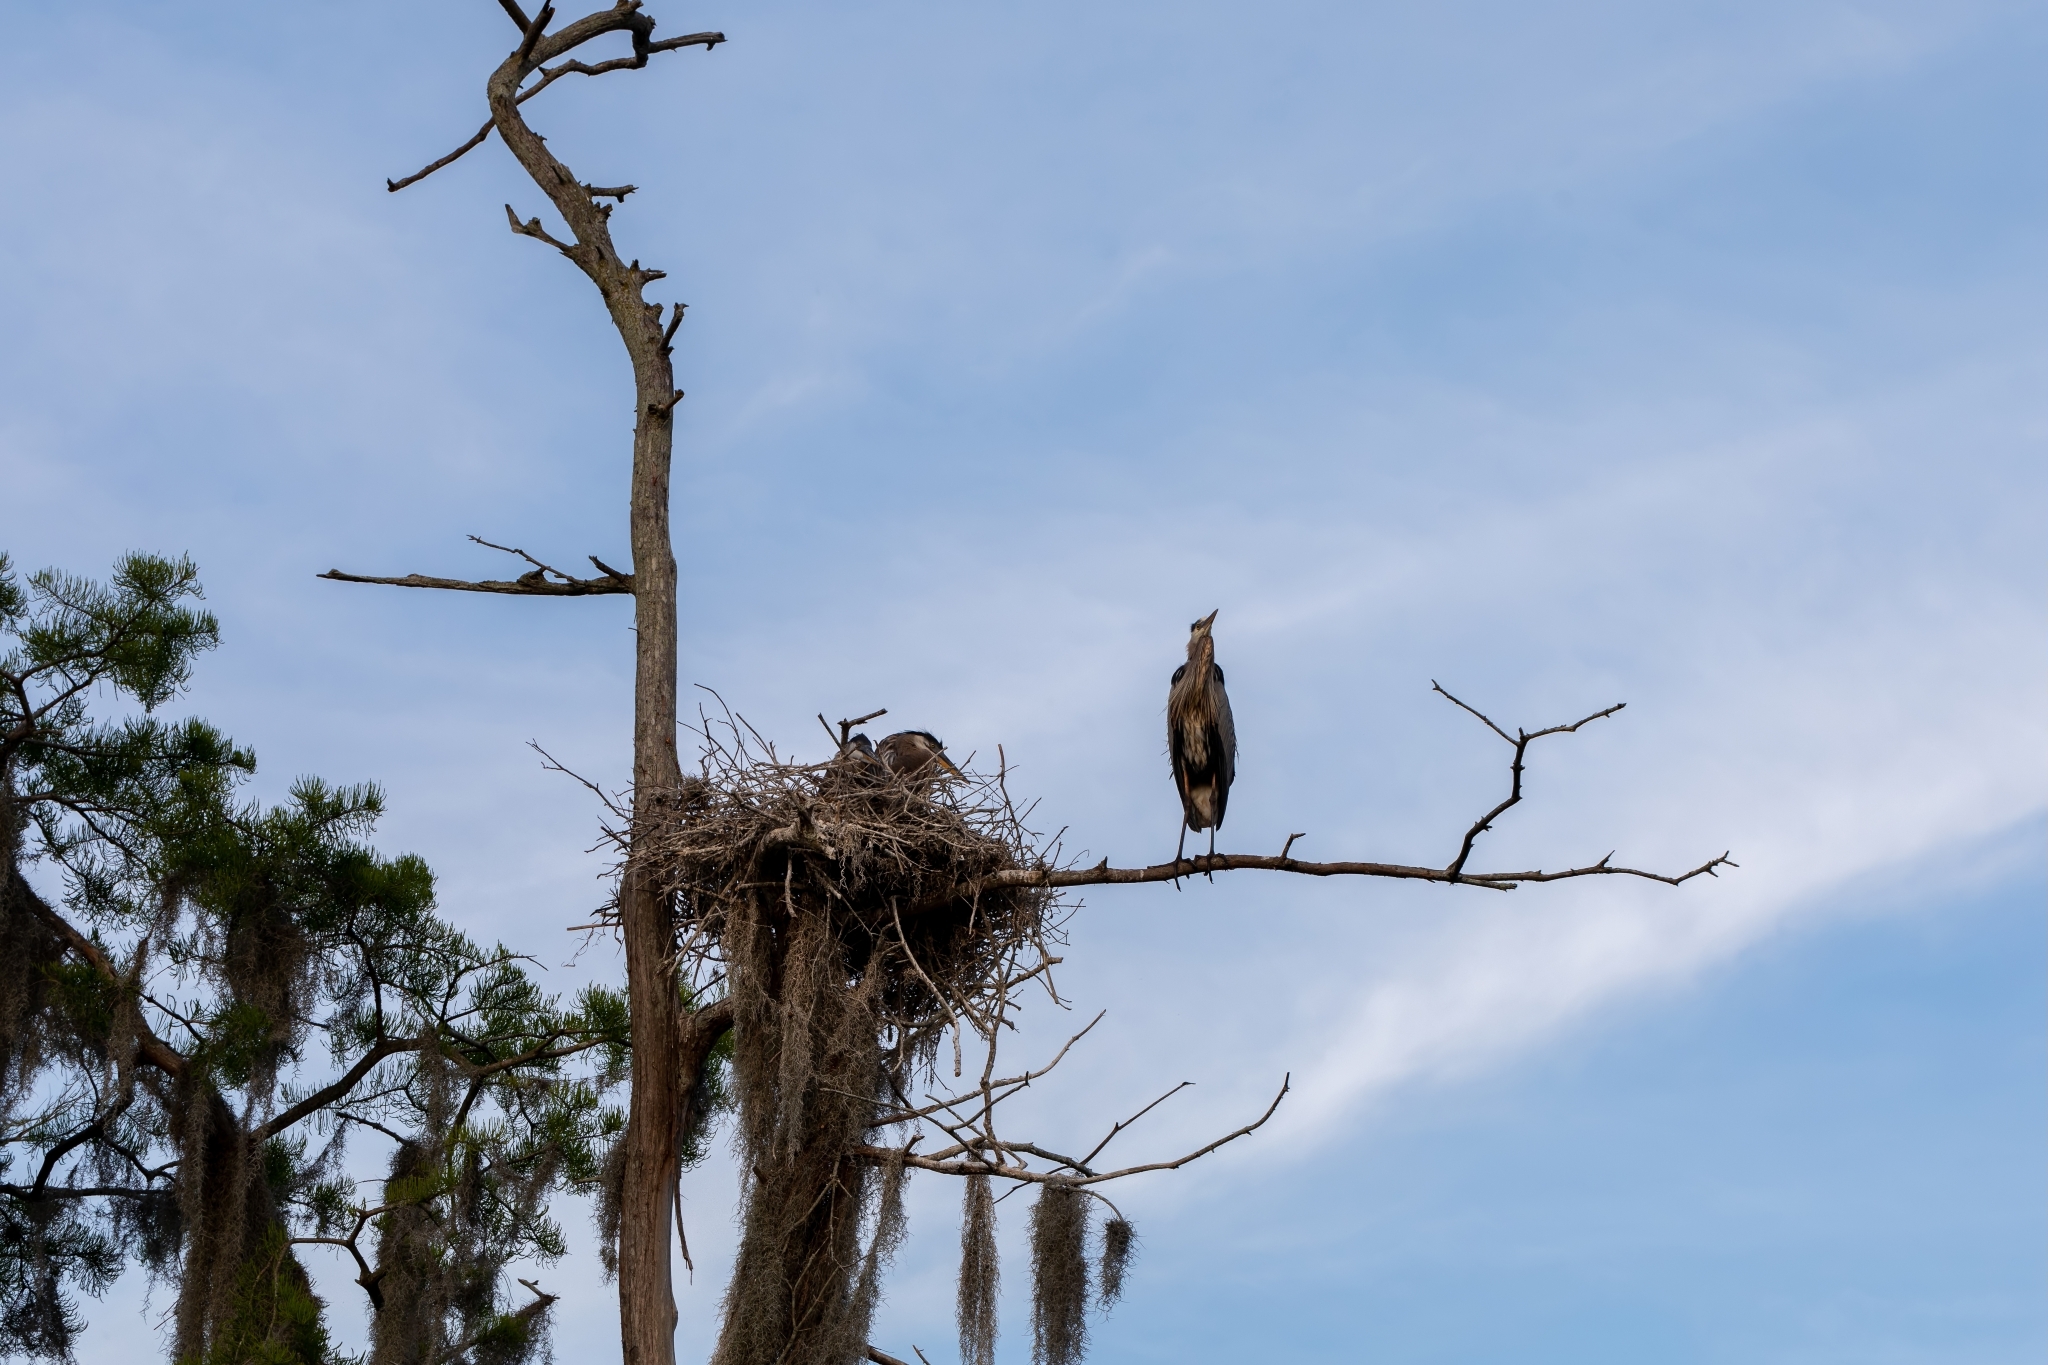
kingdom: Animalia
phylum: Chordata
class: Aves
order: Pelecaniformes
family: Ardeidae
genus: Ardea
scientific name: Ardea herodias
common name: Great blue heron
